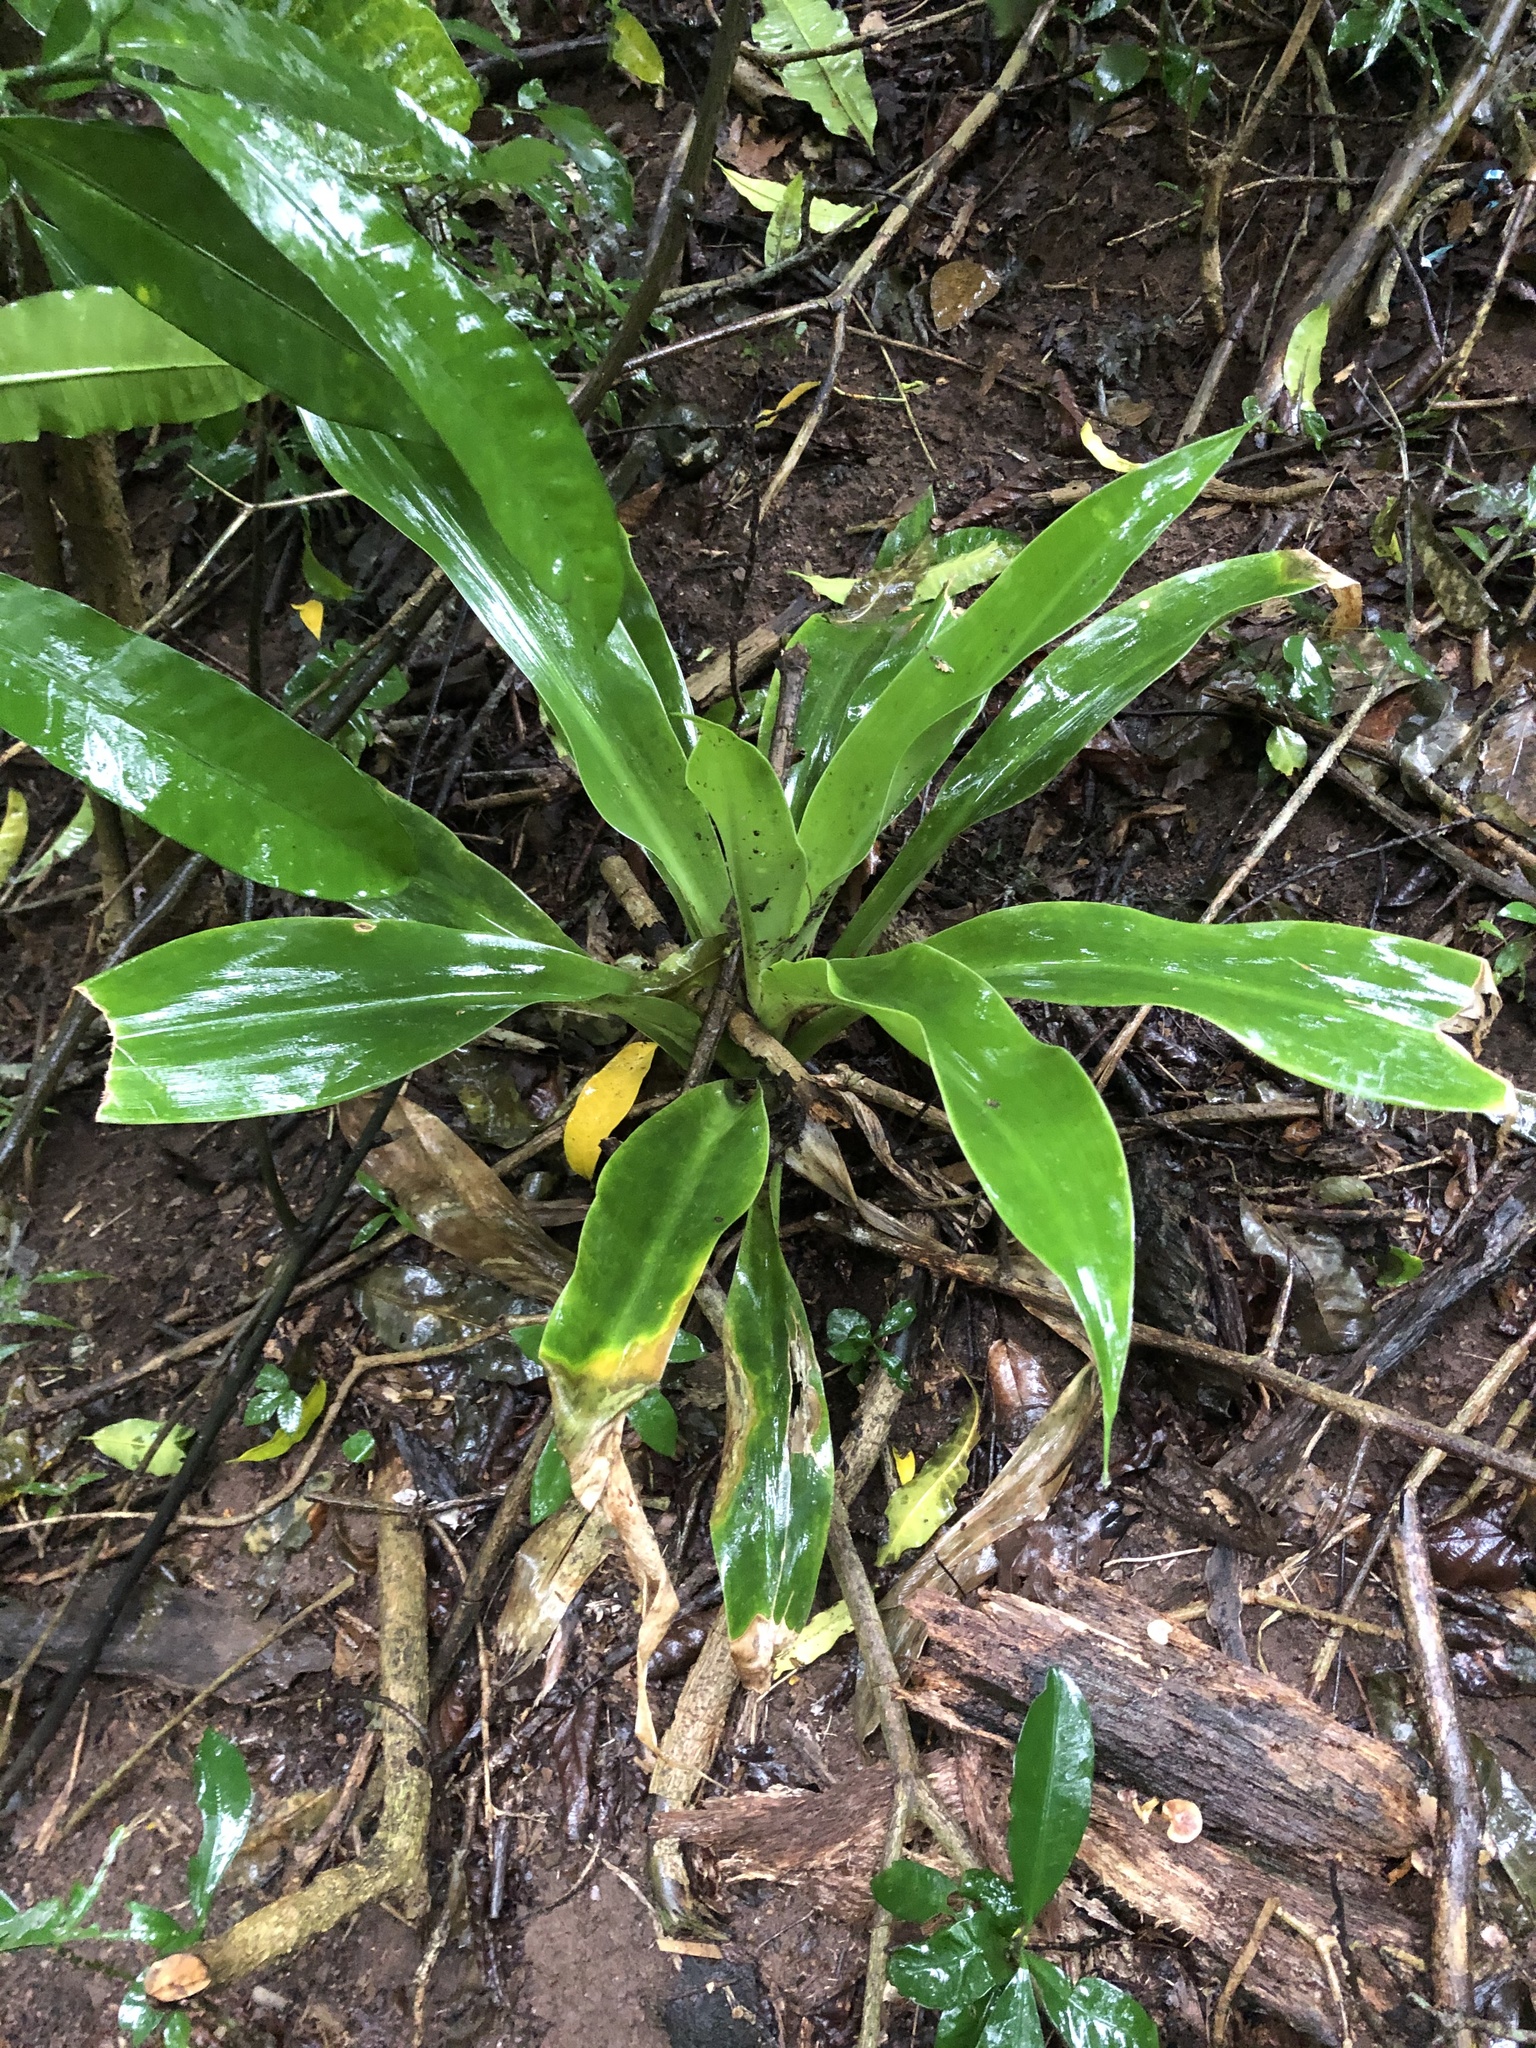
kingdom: Plantae
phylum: Tracheophyta
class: Liliopsida
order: Asparagales
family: Asparagaceae
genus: Dracaena
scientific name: Dracaena aletriformis
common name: Large-leaved dragon tree
